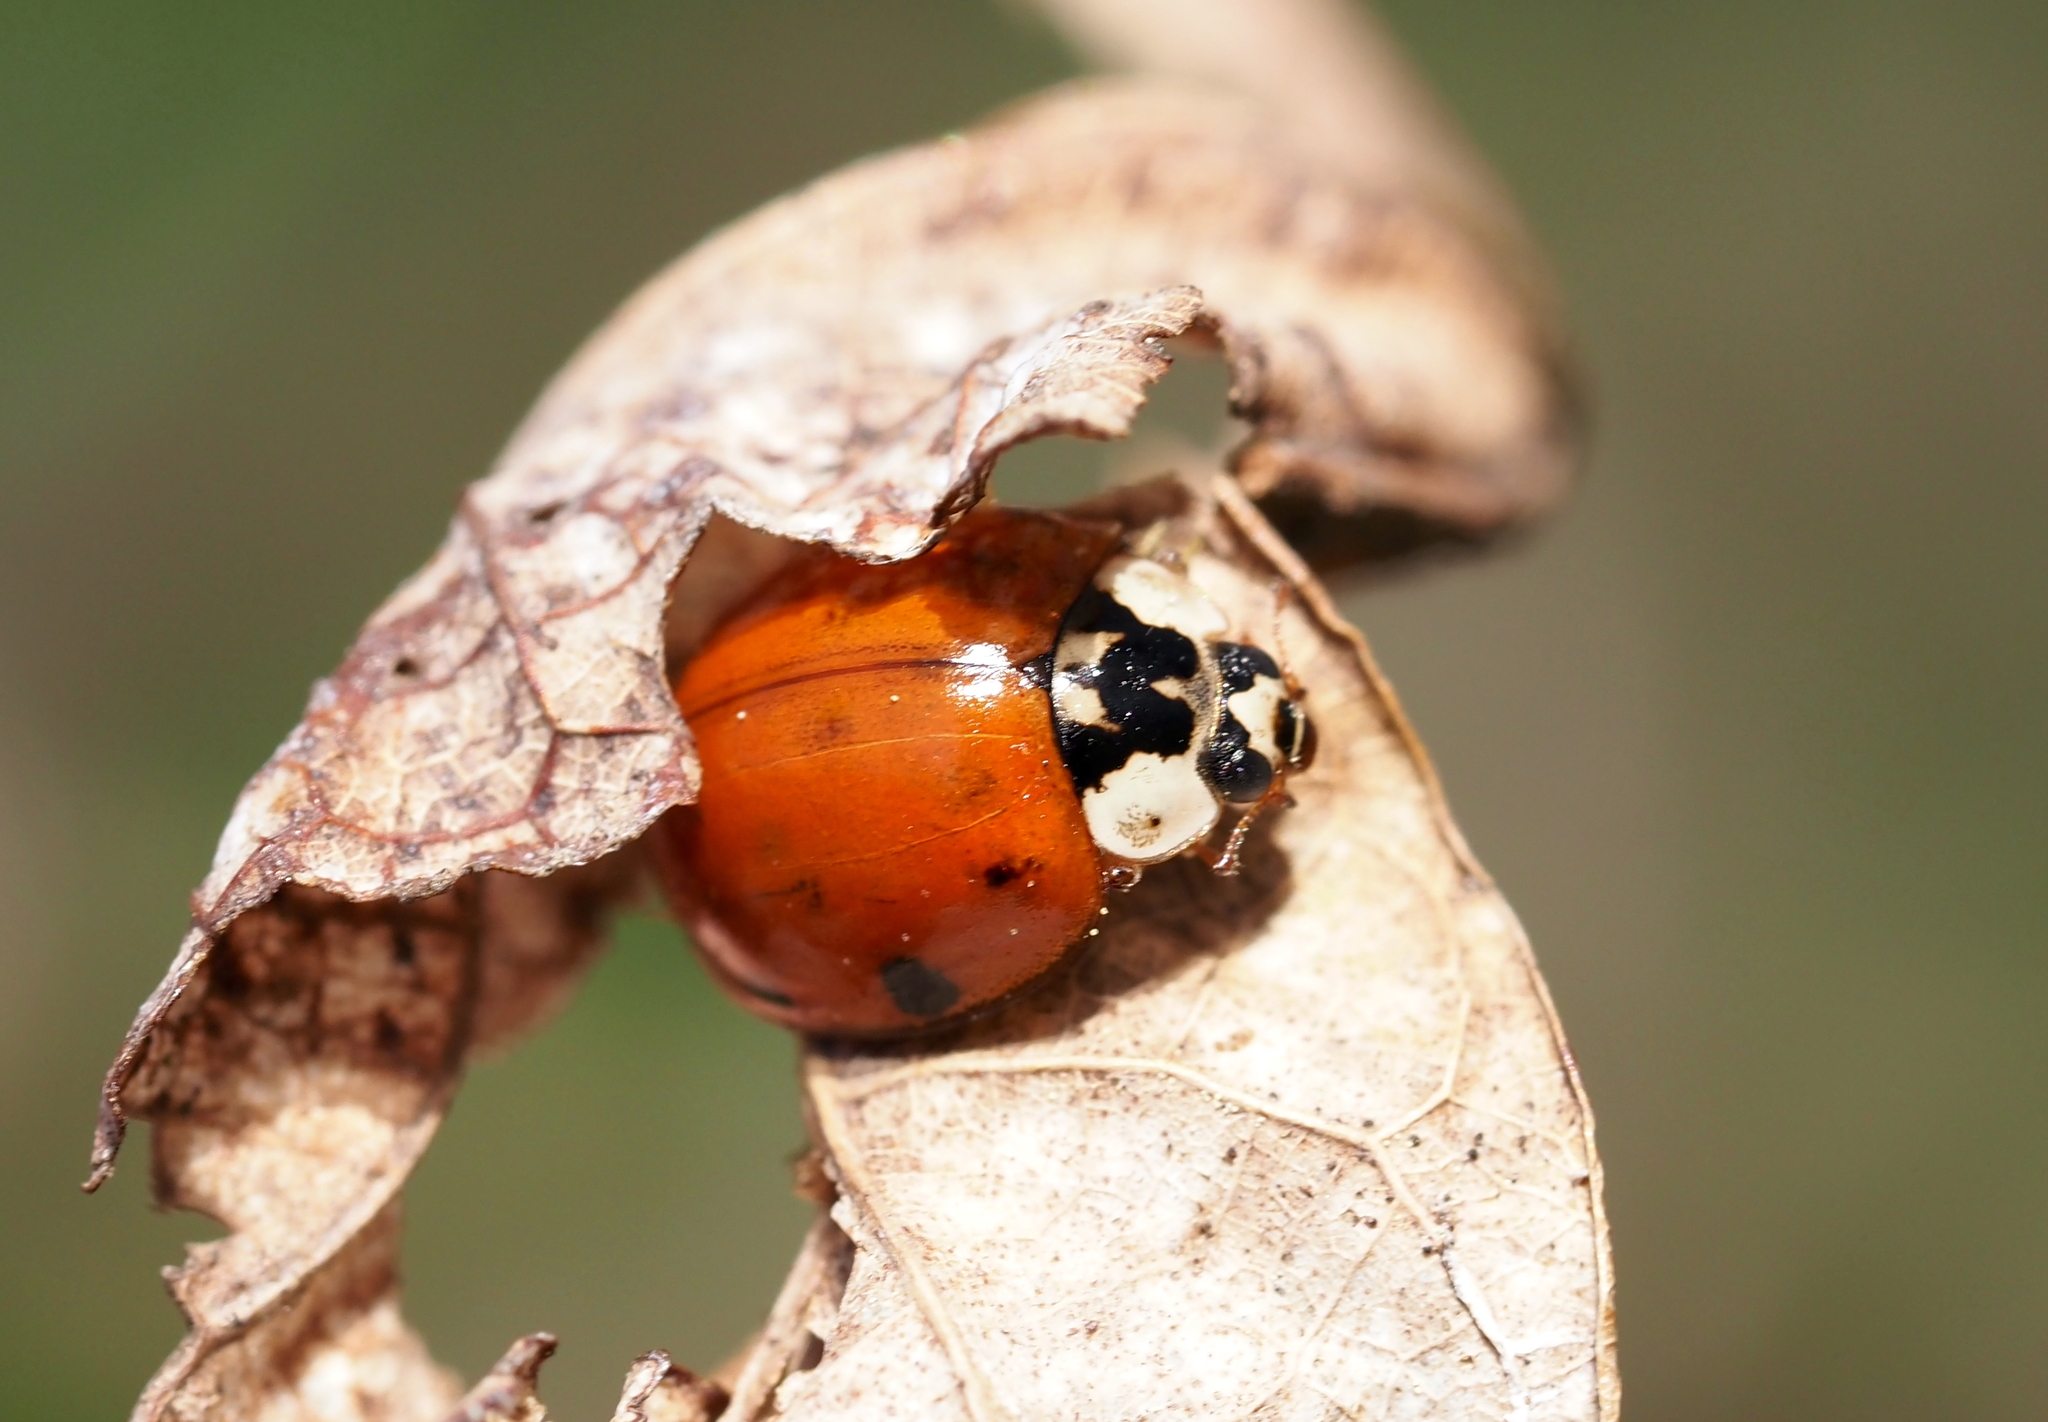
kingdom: Animalia
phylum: Arthropoda
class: Insecta
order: Coleoptera
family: Coccinellidae
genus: Harmonia
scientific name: Harmonia axyridis
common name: Harlequin ladybird
